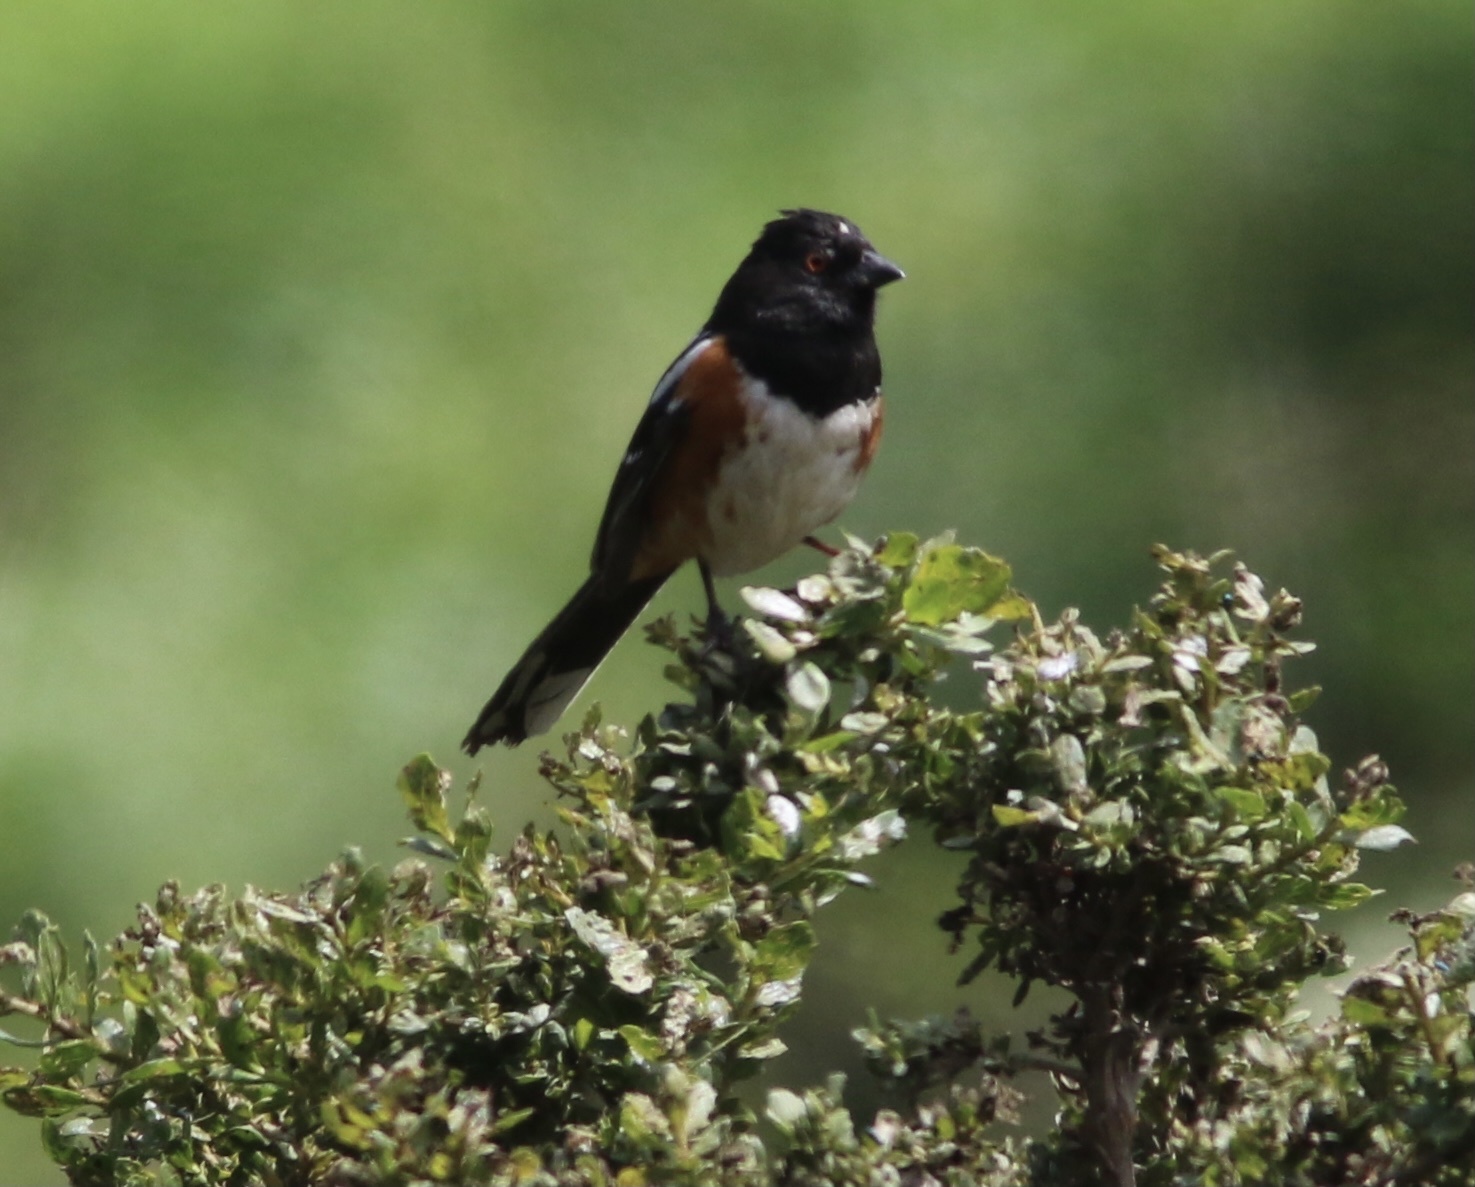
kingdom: Animalia
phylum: Chordata
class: Aves
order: Passeriformes
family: Passerellidae
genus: Pipilo
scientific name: Pipilo maculatus
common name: Spotted towhee
